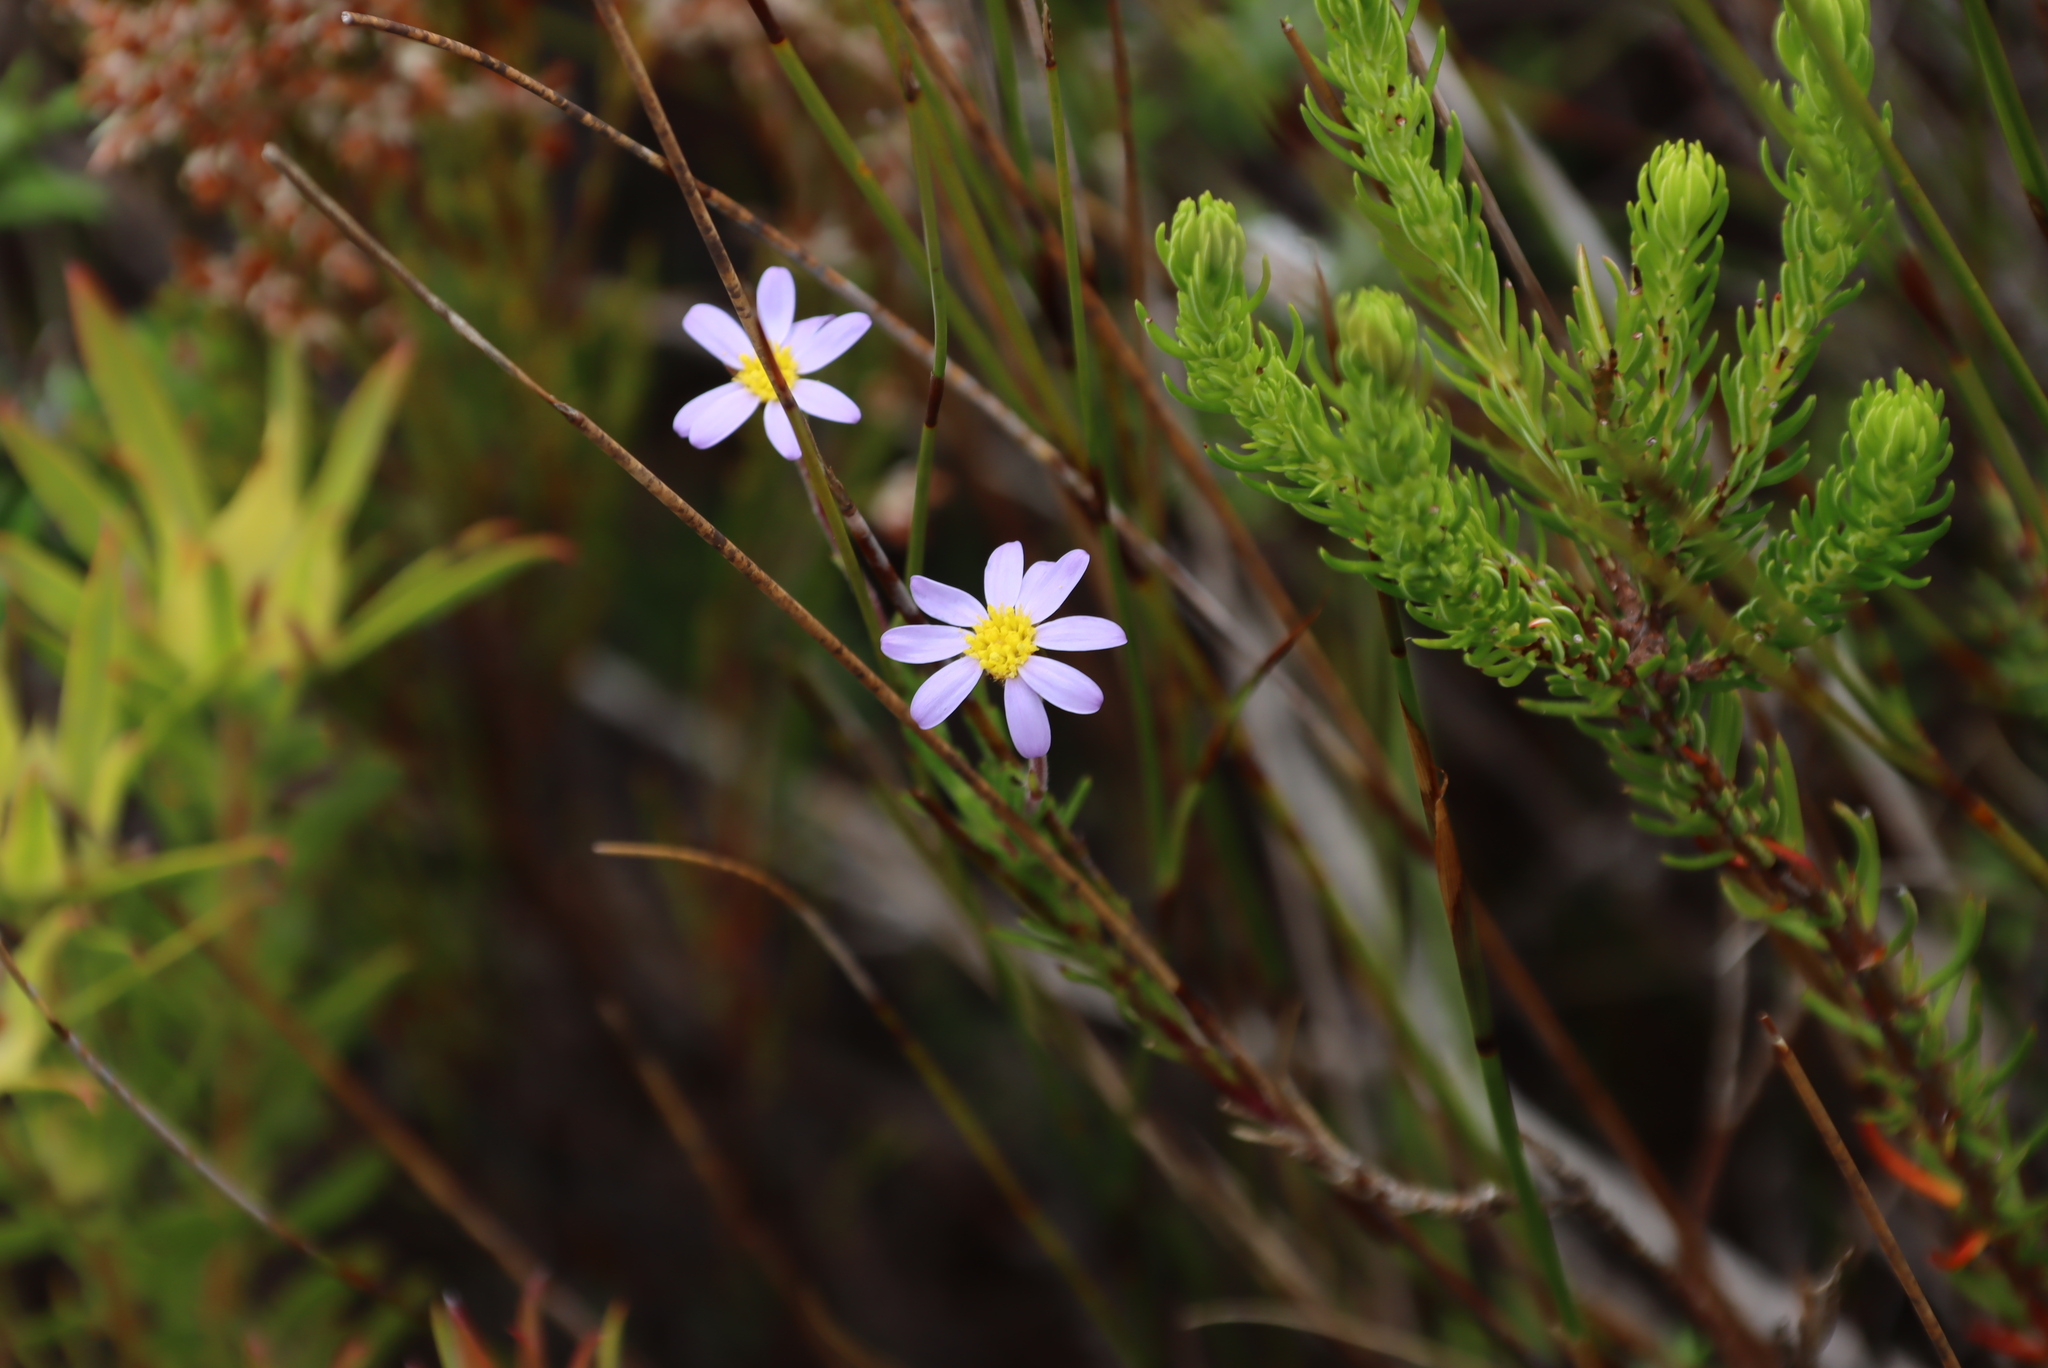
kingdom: Plantae
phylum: Tracheophyta
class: Magnoliopsida
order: Asterales
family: Asteraceae
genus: Zyrphelis
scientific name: Zyrphelis taxifolia
